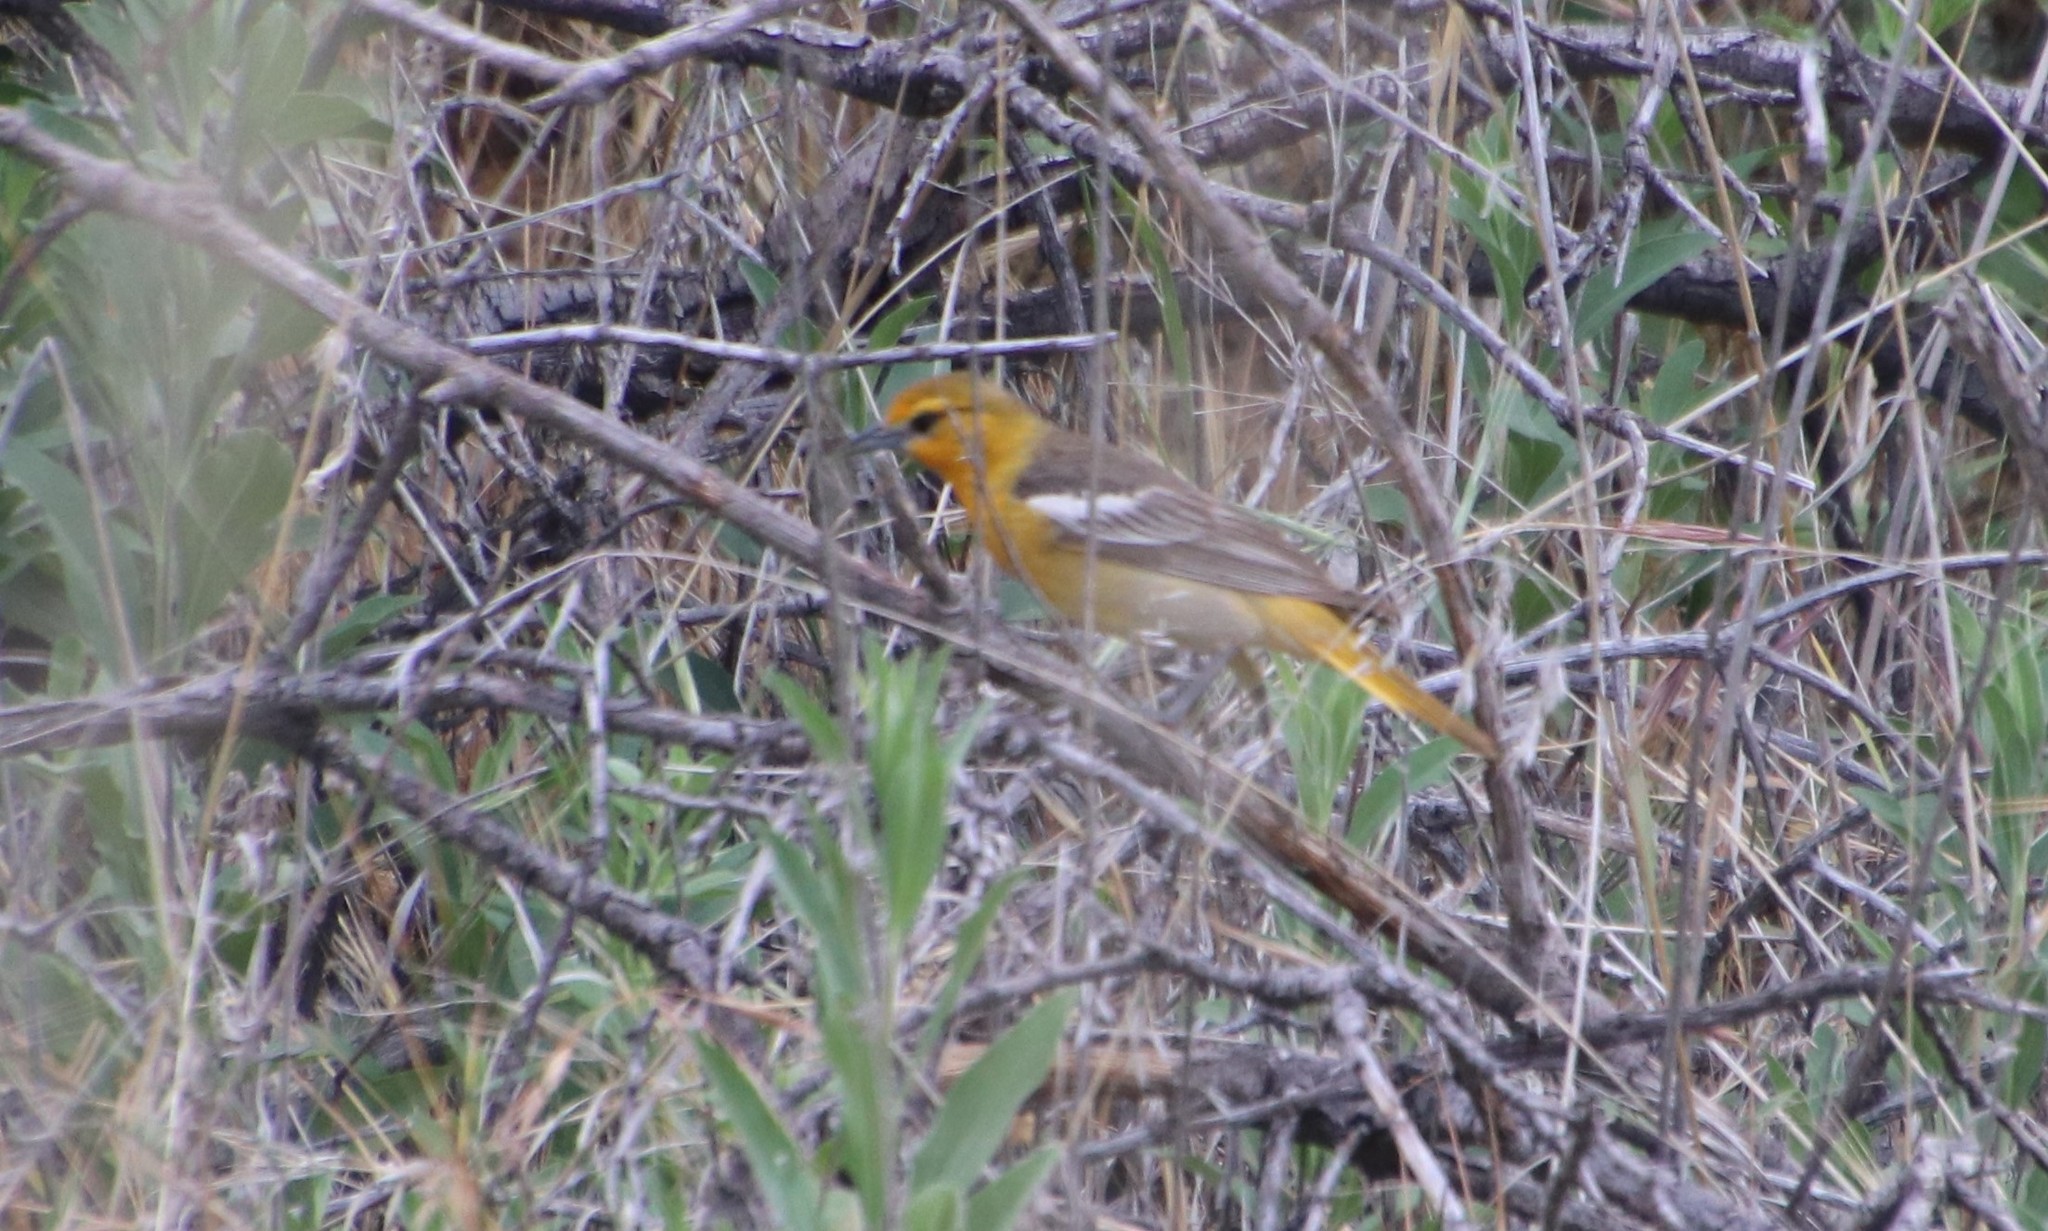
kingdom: Animalia
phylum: Chordata
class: Aves
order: Passeriformes
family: Icteridae
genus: Icterus
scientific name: Icterus bullockii
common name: Bullock's oriole
